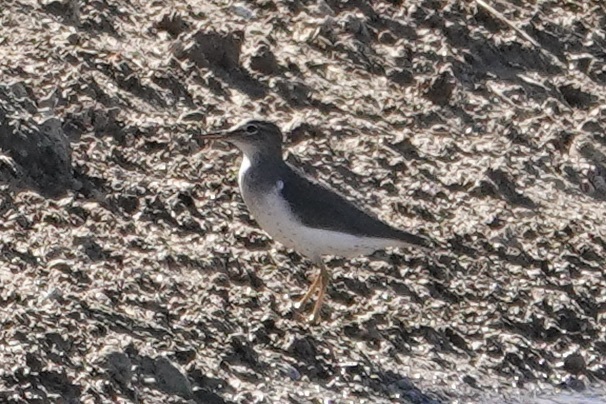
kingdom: Animalia
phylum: Chordata
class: Aves
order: Charadriiformes
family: Scolopacidae
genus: Actitis
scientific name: Actitis macularius
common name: Spotted sandpiper
